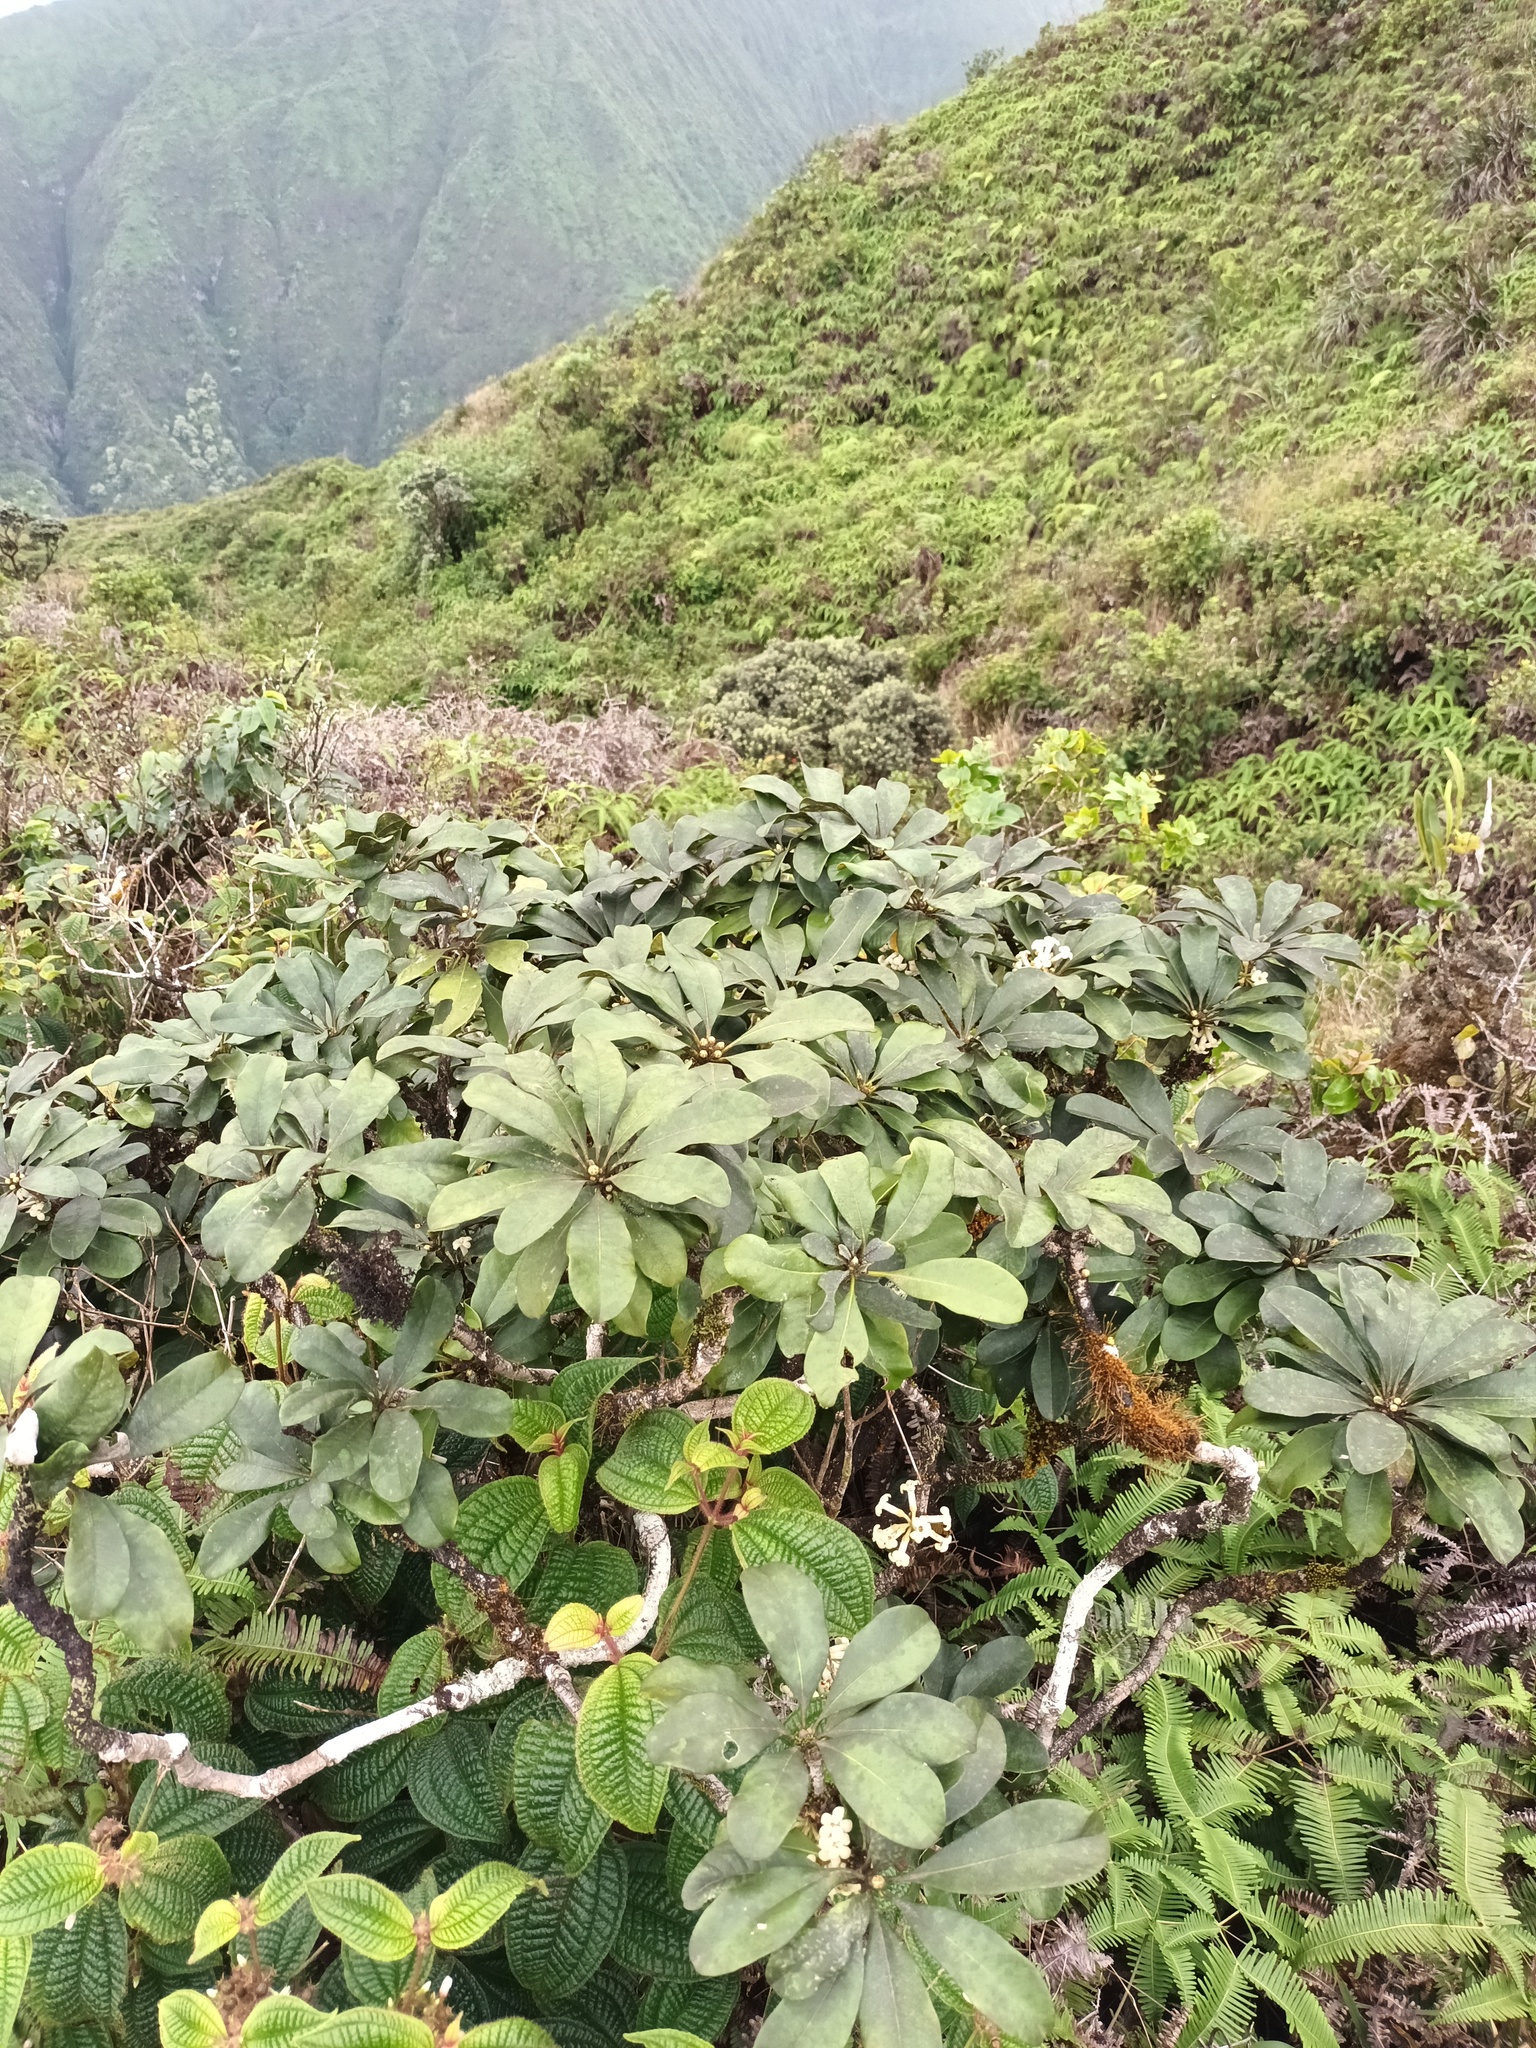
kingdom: Plantae
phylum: Tracheophyta
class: Magnoliopsida
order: Apiales
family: Pittosporaceae
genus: Pittosporum
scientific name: Pittosporum confertiflorum
